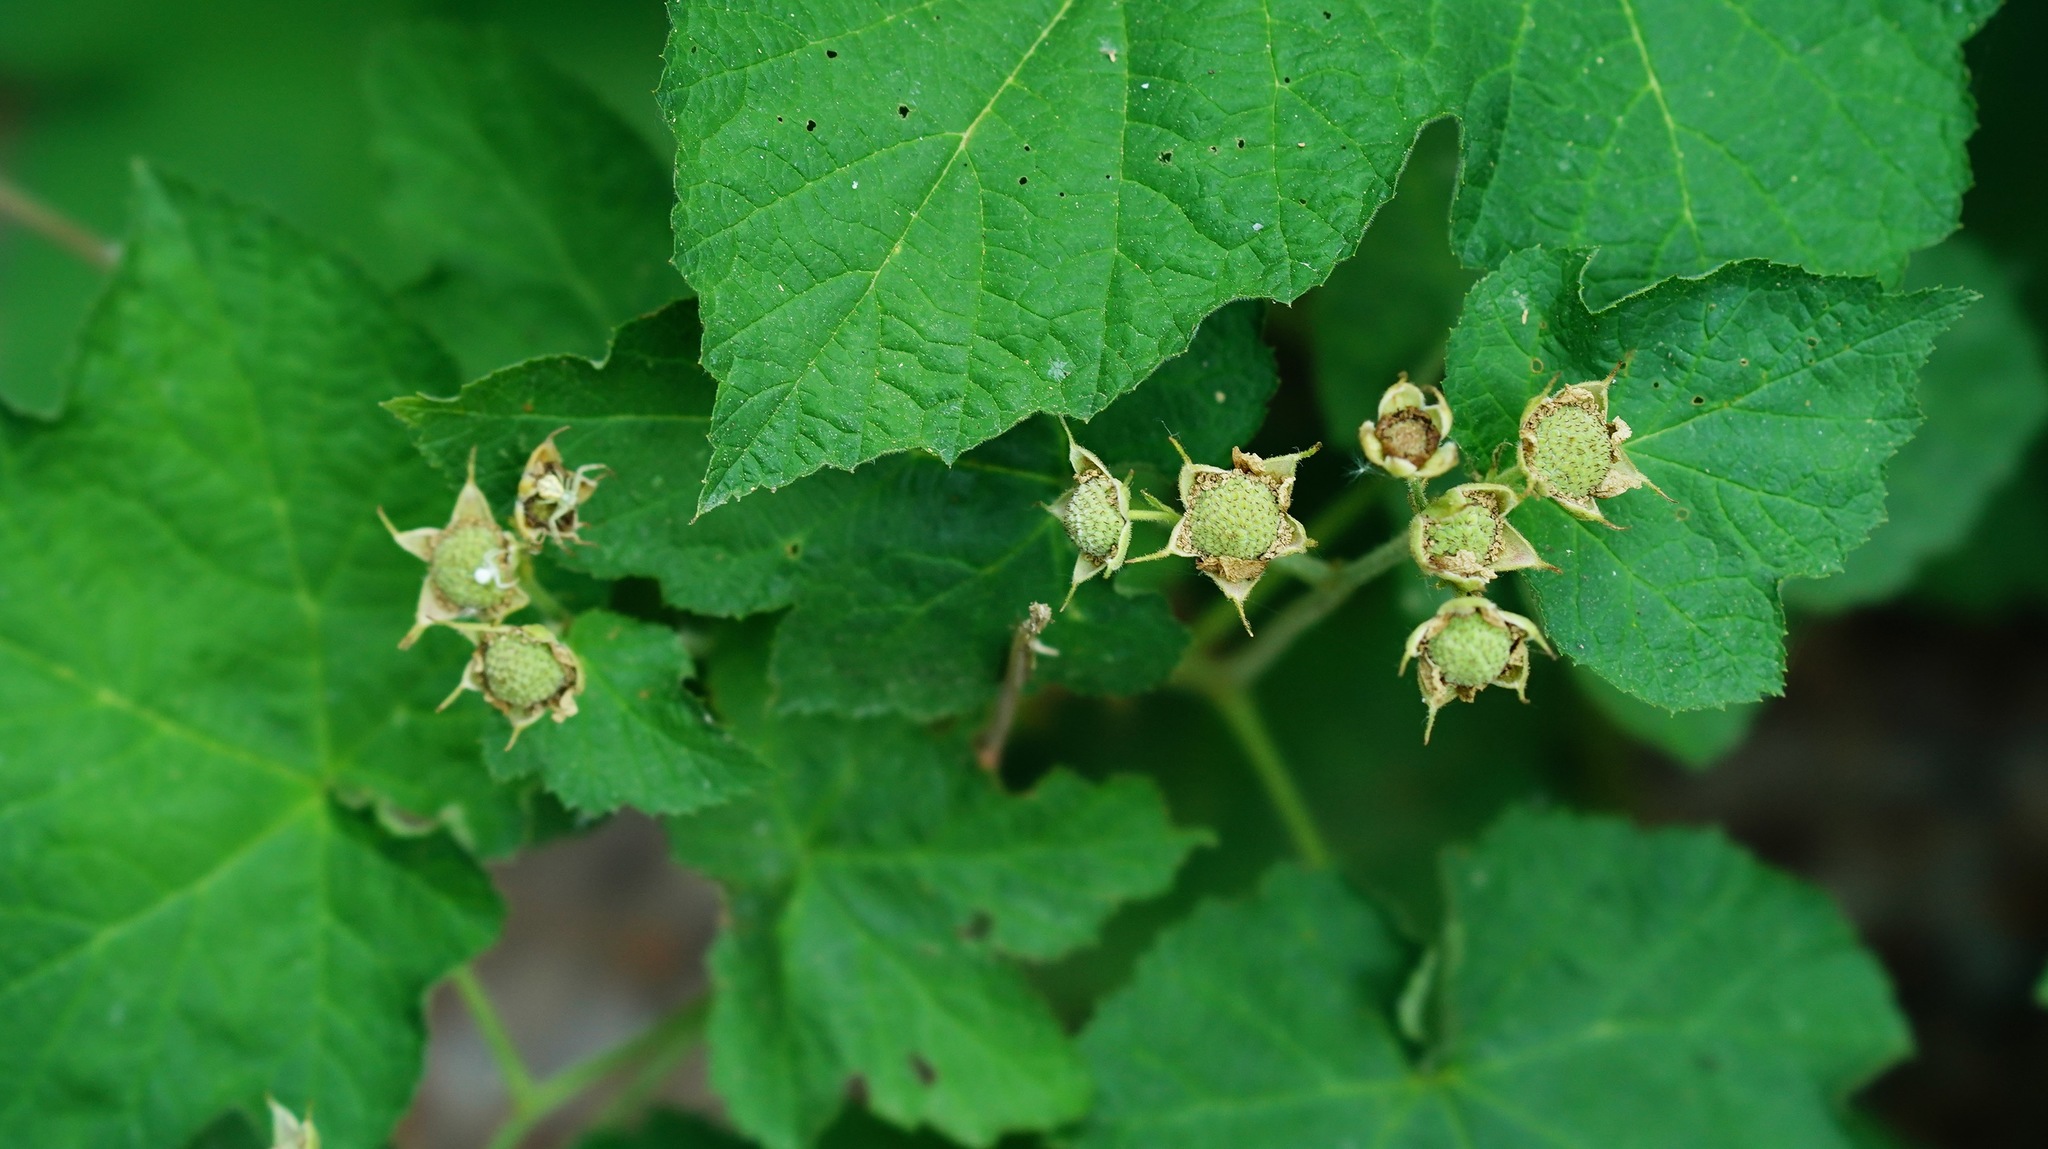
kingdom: Plantae
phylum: Tracheophyta
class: Magnoliopsida
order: Rosales
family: Rosaceae
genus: Rubus
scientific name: Rubus parviflorus
